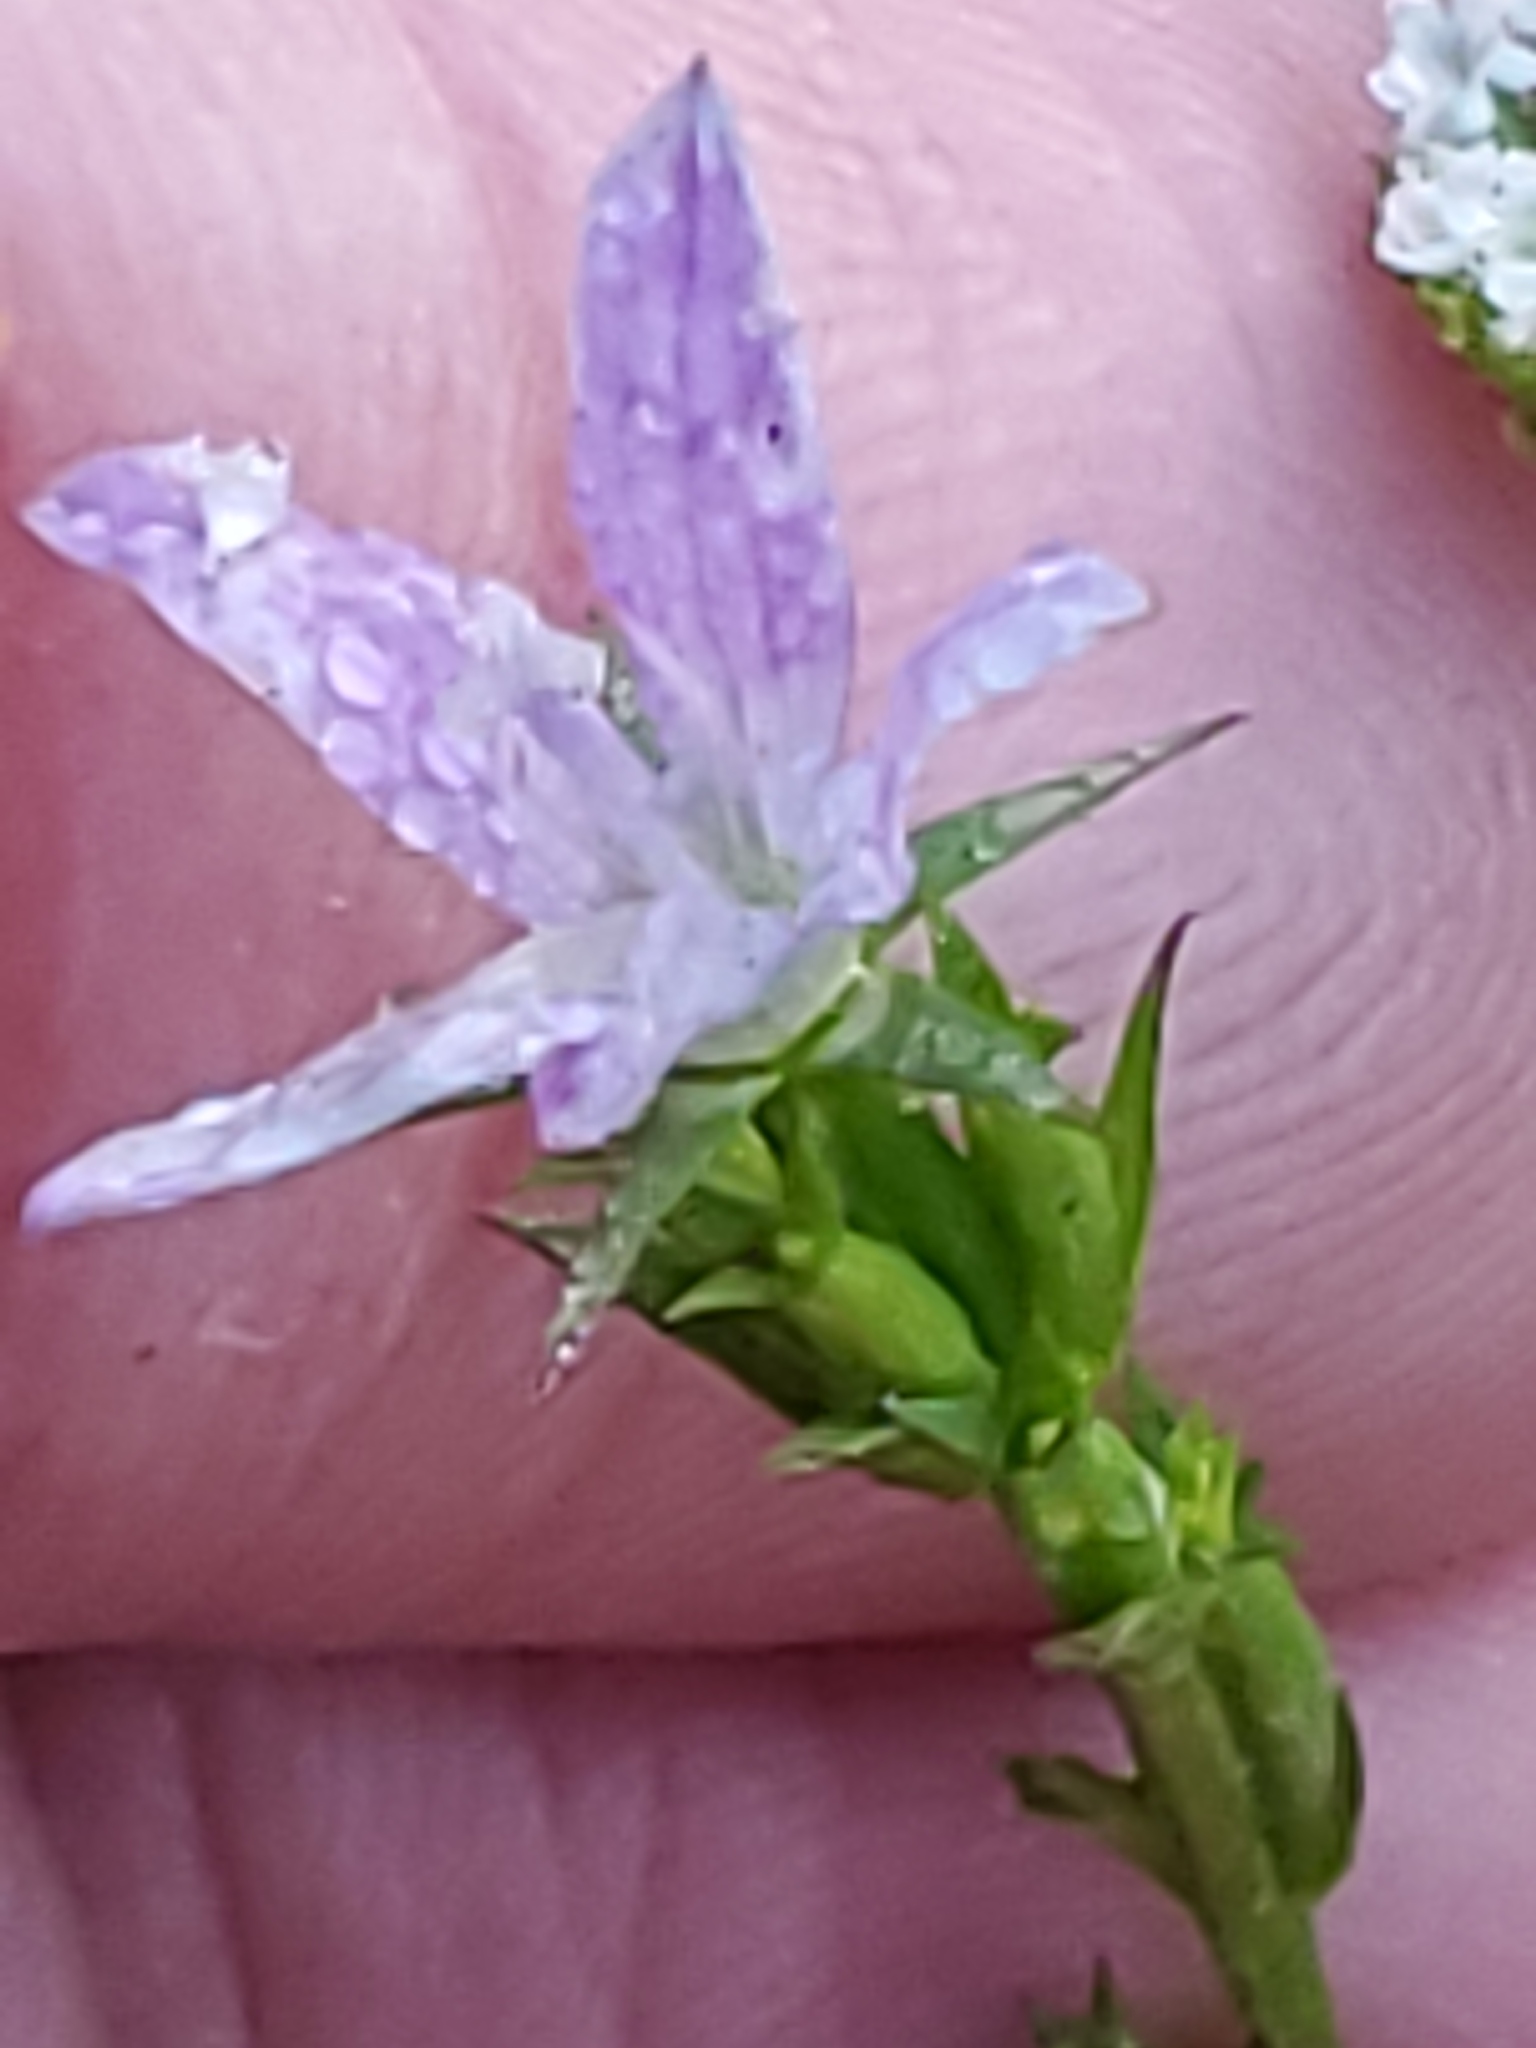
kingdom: Plantae
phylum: Tracheophyta
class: Magnoliopsida
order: Asterales
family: Campanulaceae
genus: Triodanis
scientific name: Triodanis biflora
